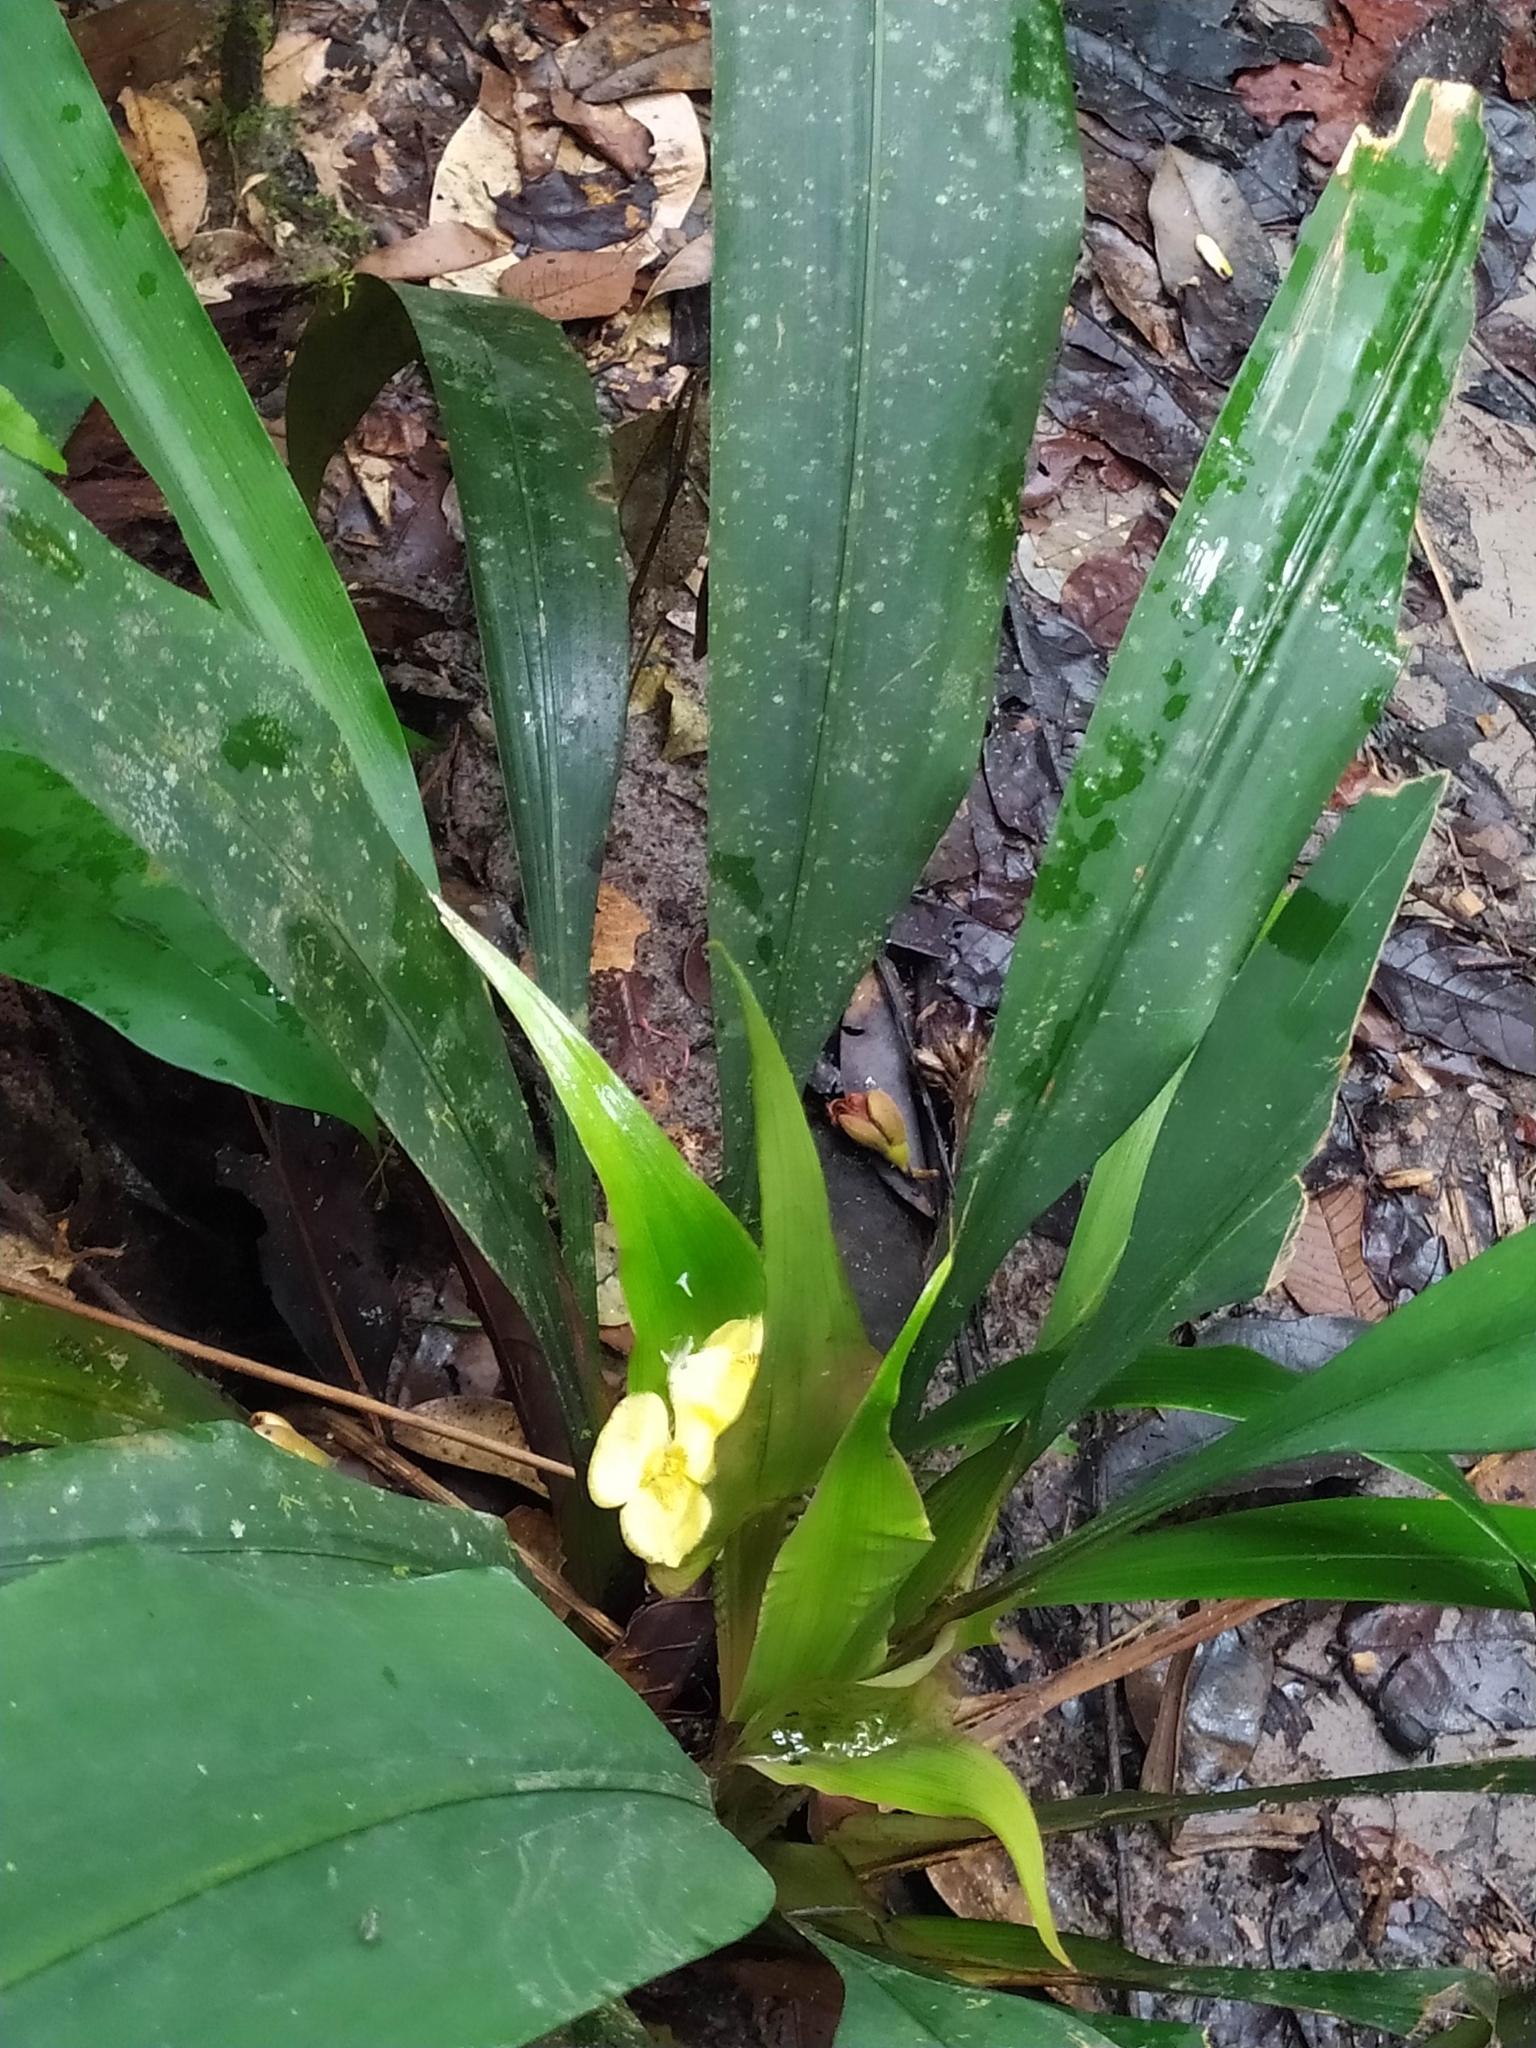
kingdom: Plantae
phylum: Tracheophyta
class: Liliopsida
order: Poales
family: Rapateaceae
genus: Rapatea
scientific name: Rapatea paludosa
